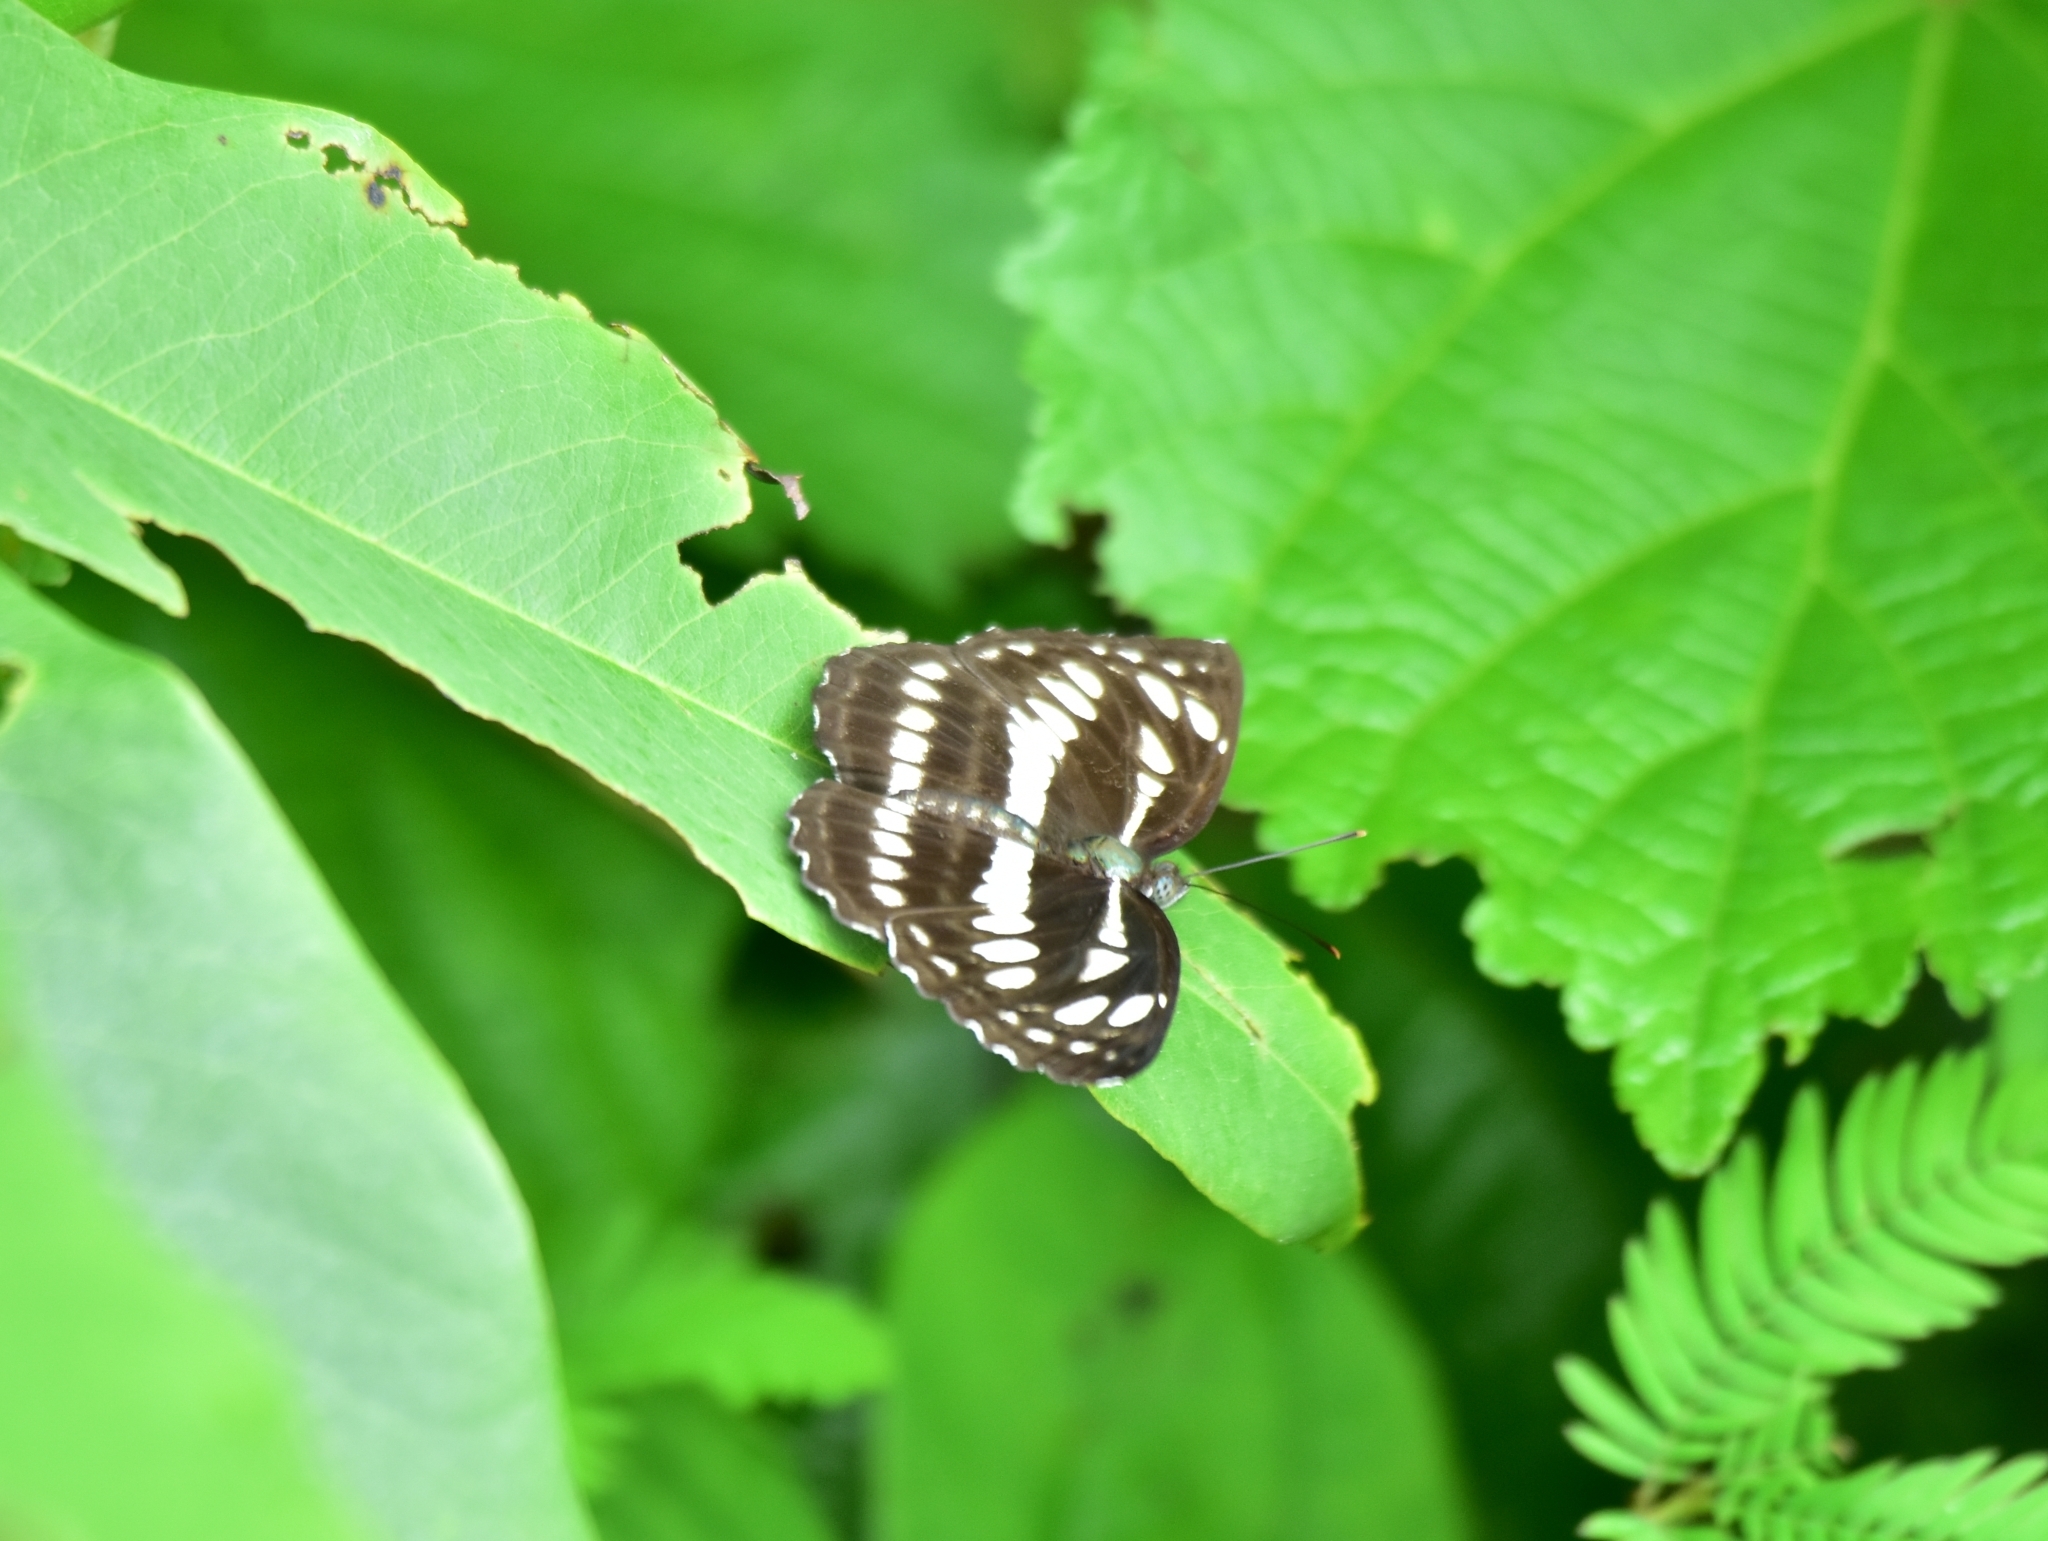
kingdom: Animalia
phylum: Arthropoda
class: Insecta
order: Lepidoptera
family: Nymphalidae
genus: Neptis
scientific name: Neptis hylas
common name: Common sailer
